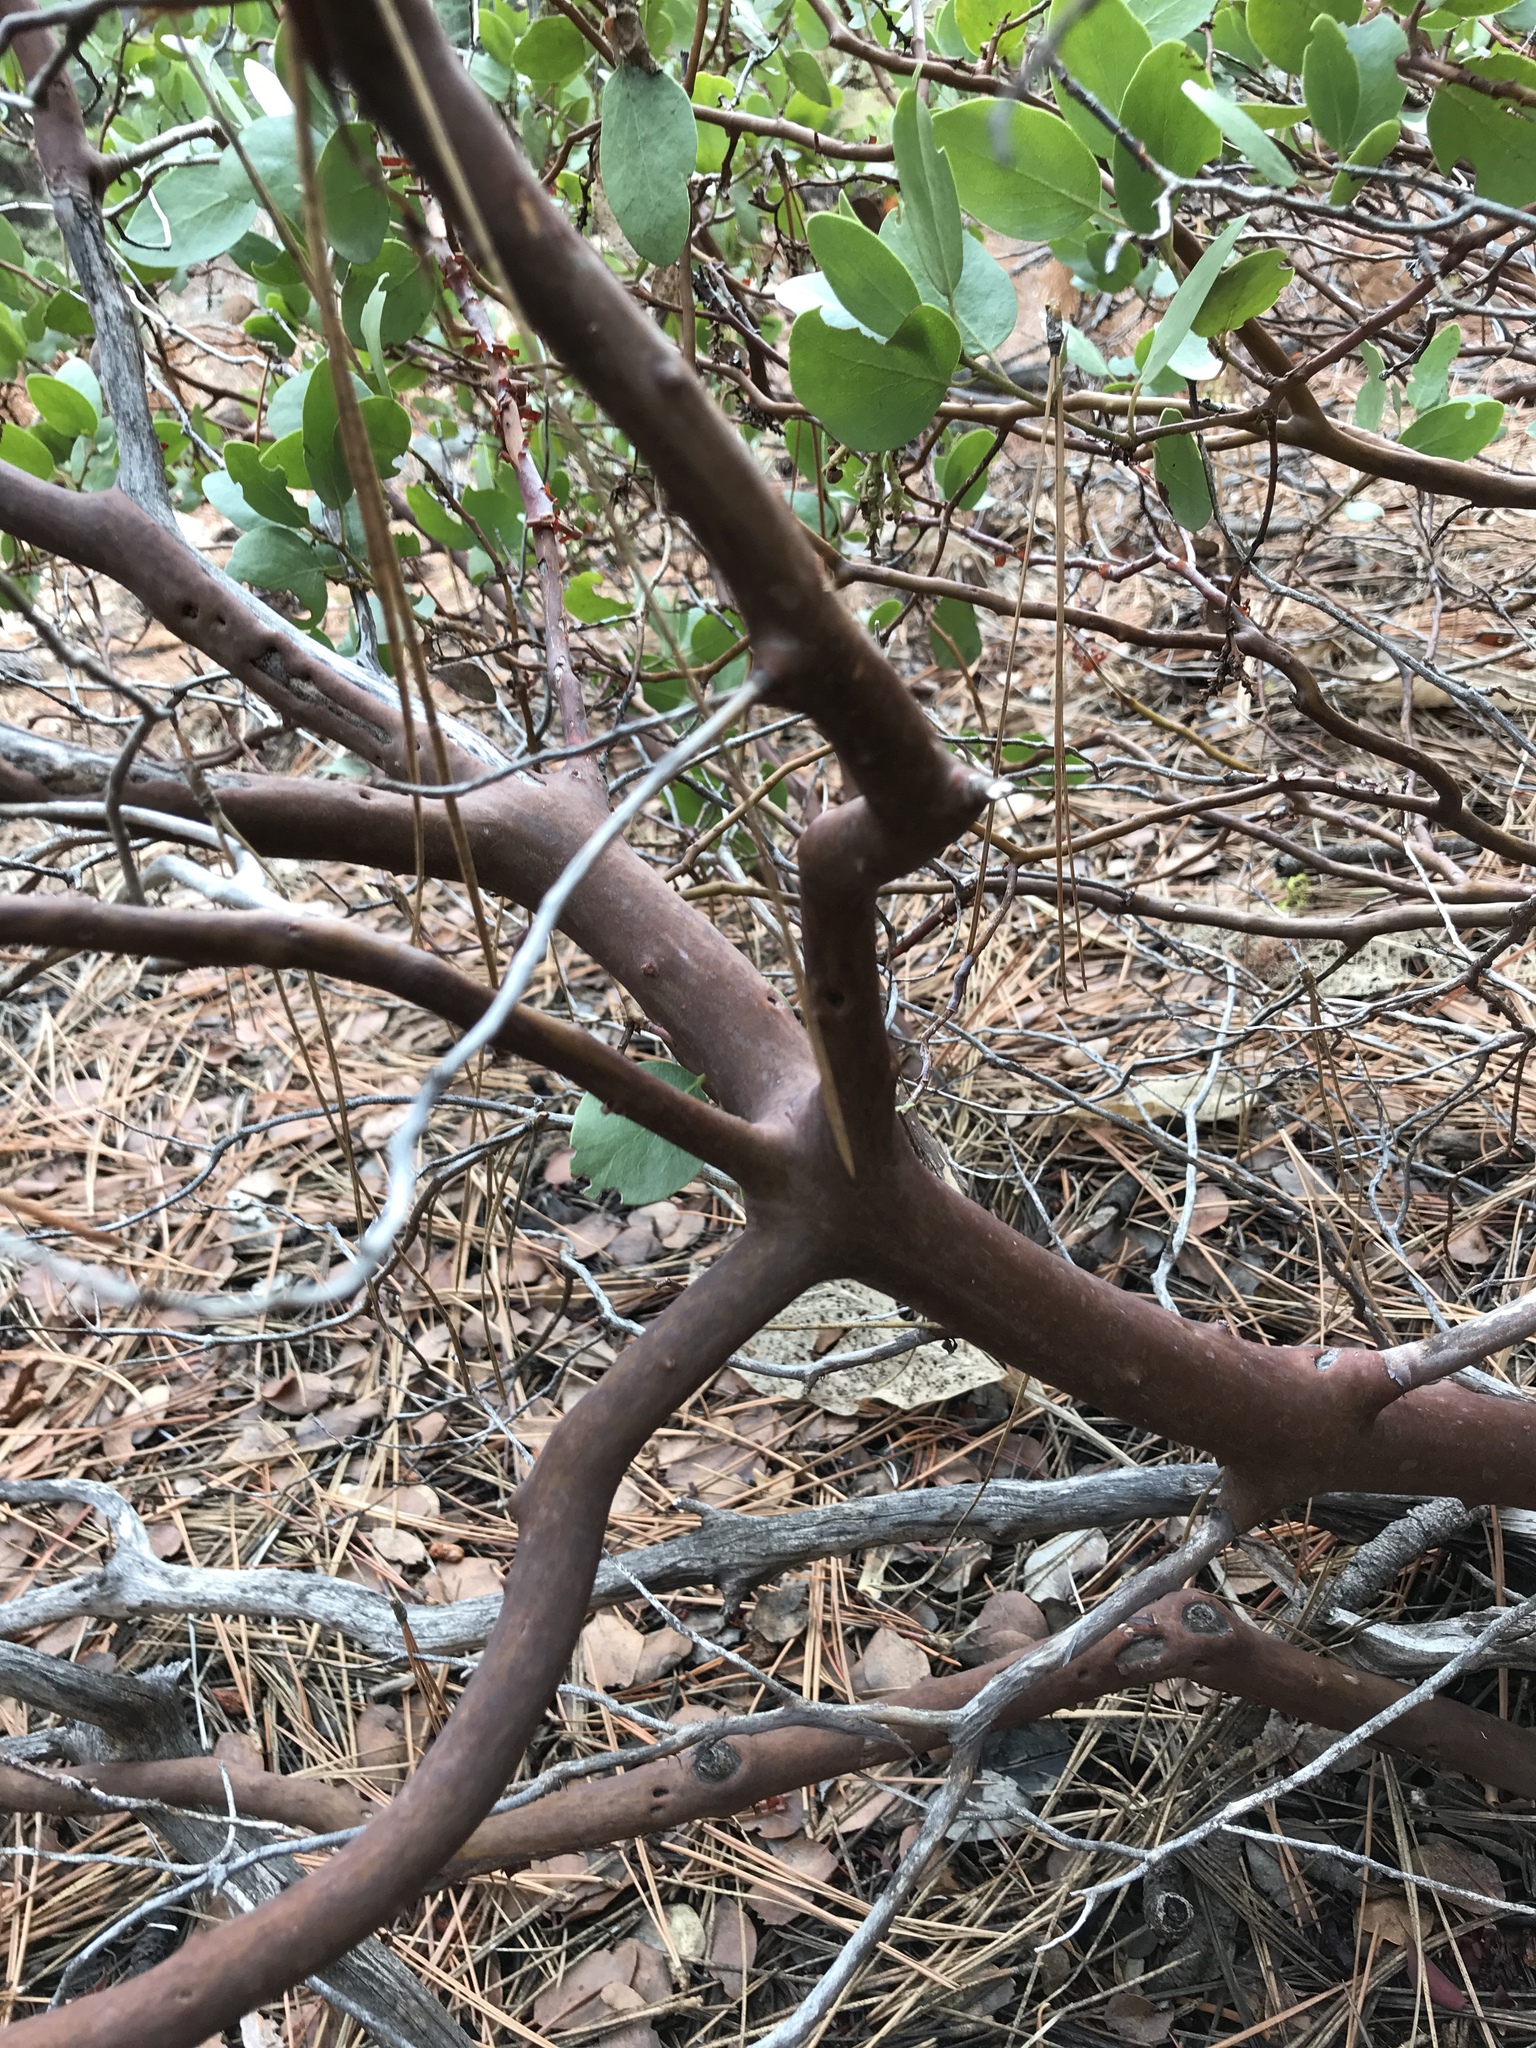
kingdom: Plantae
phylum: Tracheophyta
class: Magnoliopsida
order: Ericales
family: Ericaceae
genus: Arctostaphylos
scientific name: Arctostaphylos patula
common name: Green-leaf manzanita
